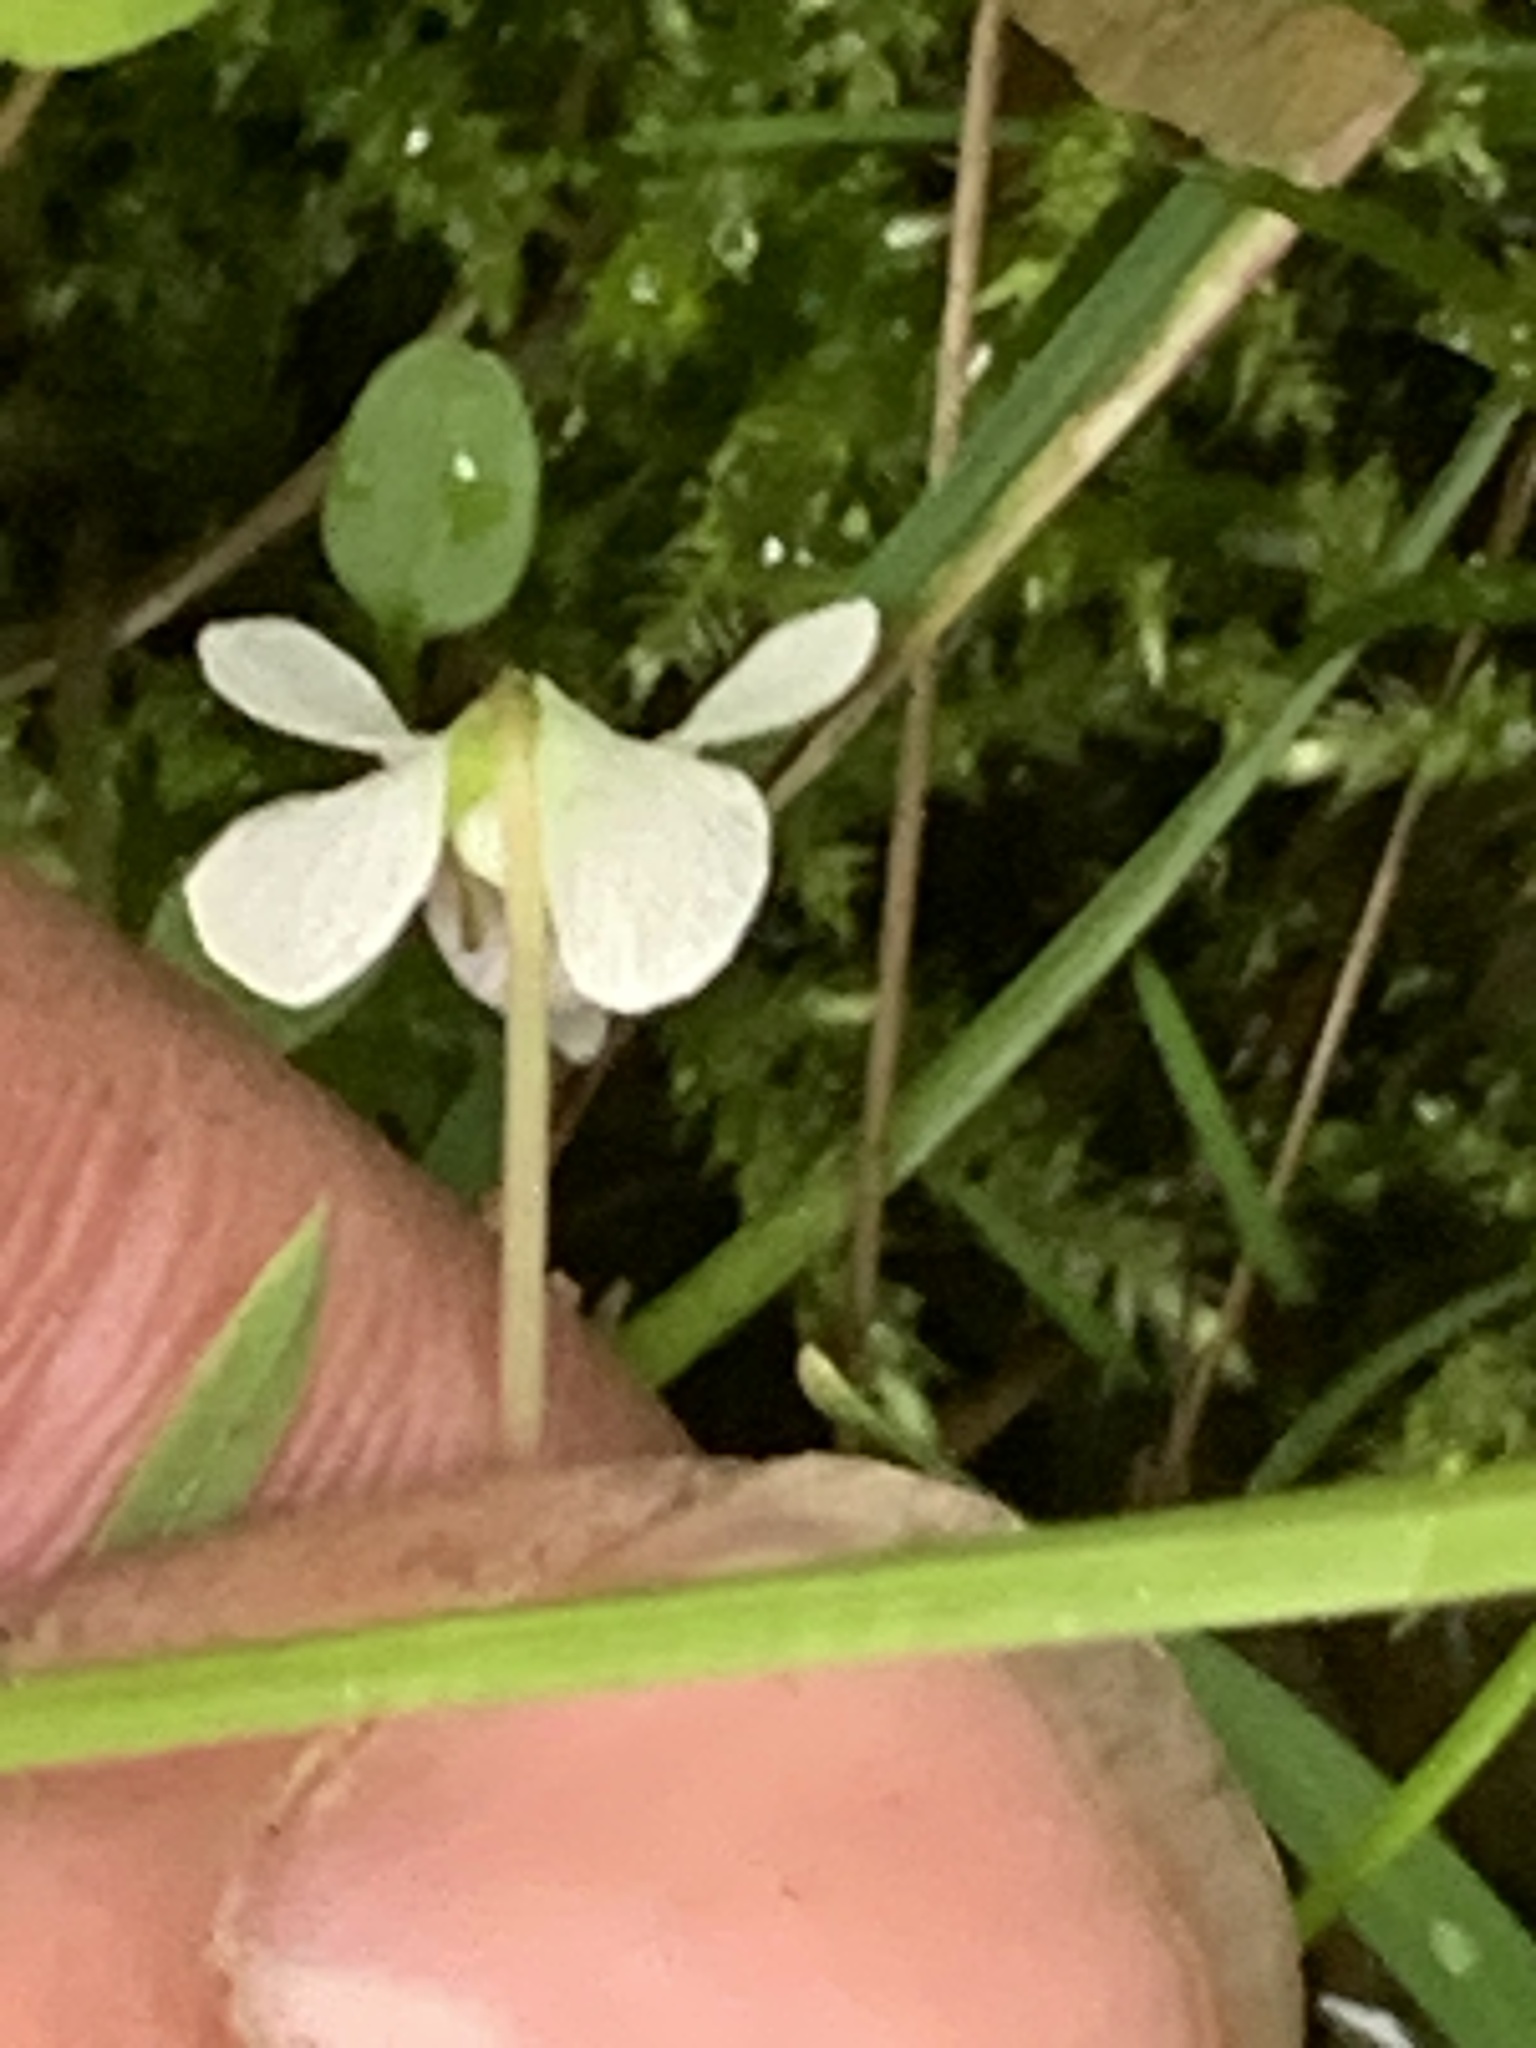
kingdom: Plantae
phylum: Tracheophyta
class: Magnoliopsida
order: Malpighiales
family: Violaceae
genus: Viola
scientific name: Viola minuscula
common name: Northern white violet
